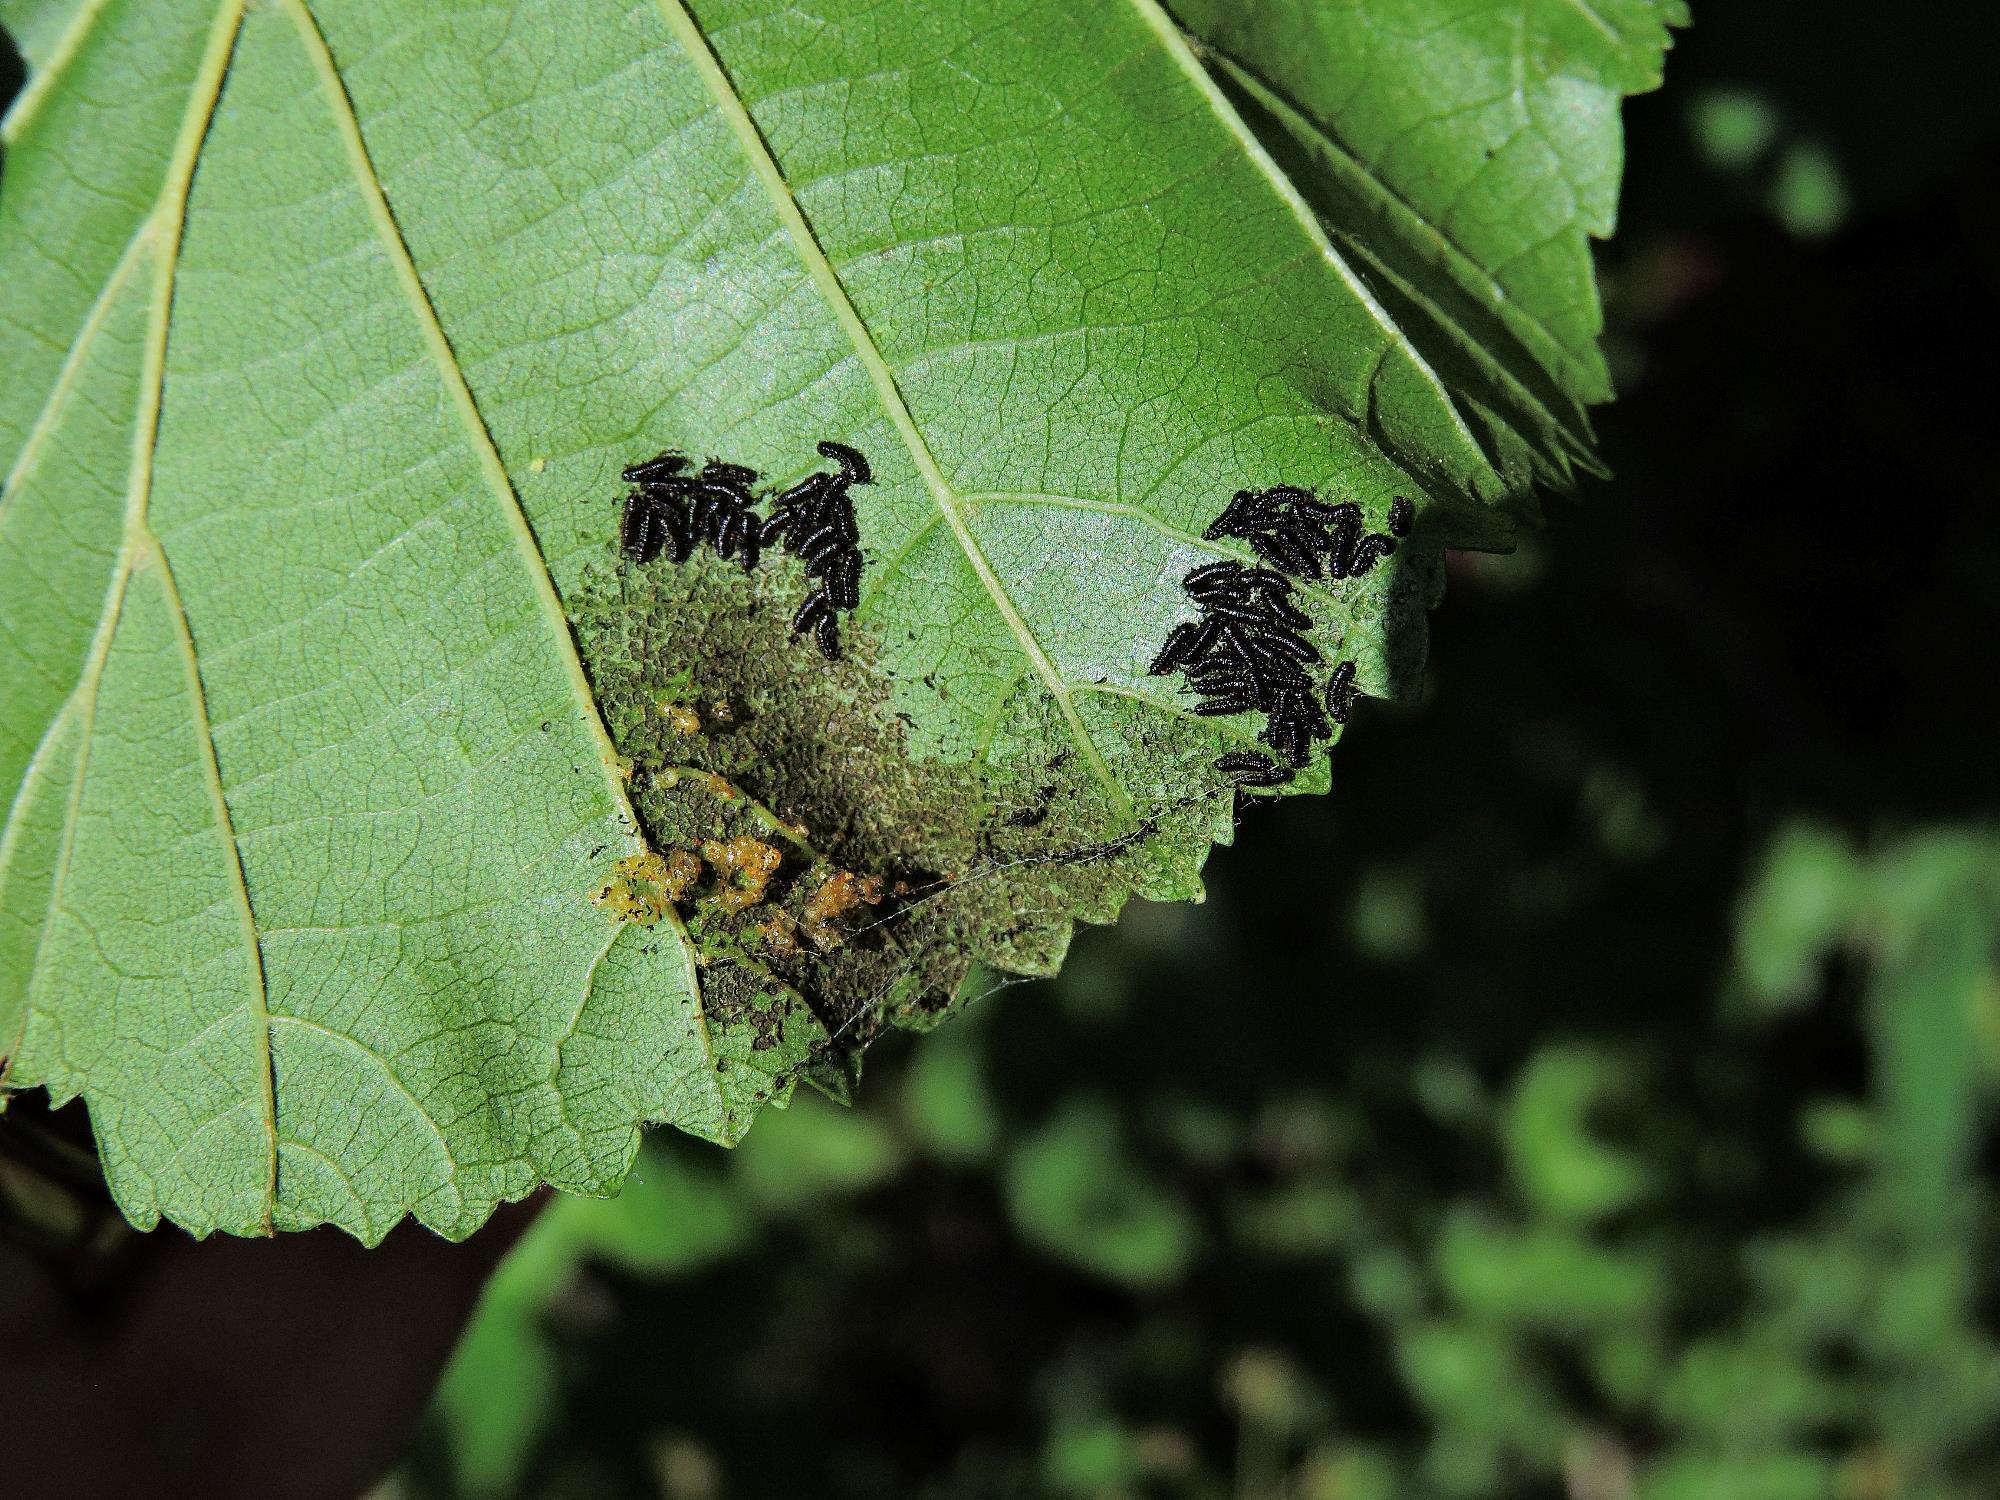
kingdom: Animalia
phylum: Arthropoda
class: Insecta
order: Coleoptera
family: Chrysomelidae
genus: Agelastica
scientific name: Agelastica alni
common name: Alder leaf beetle
